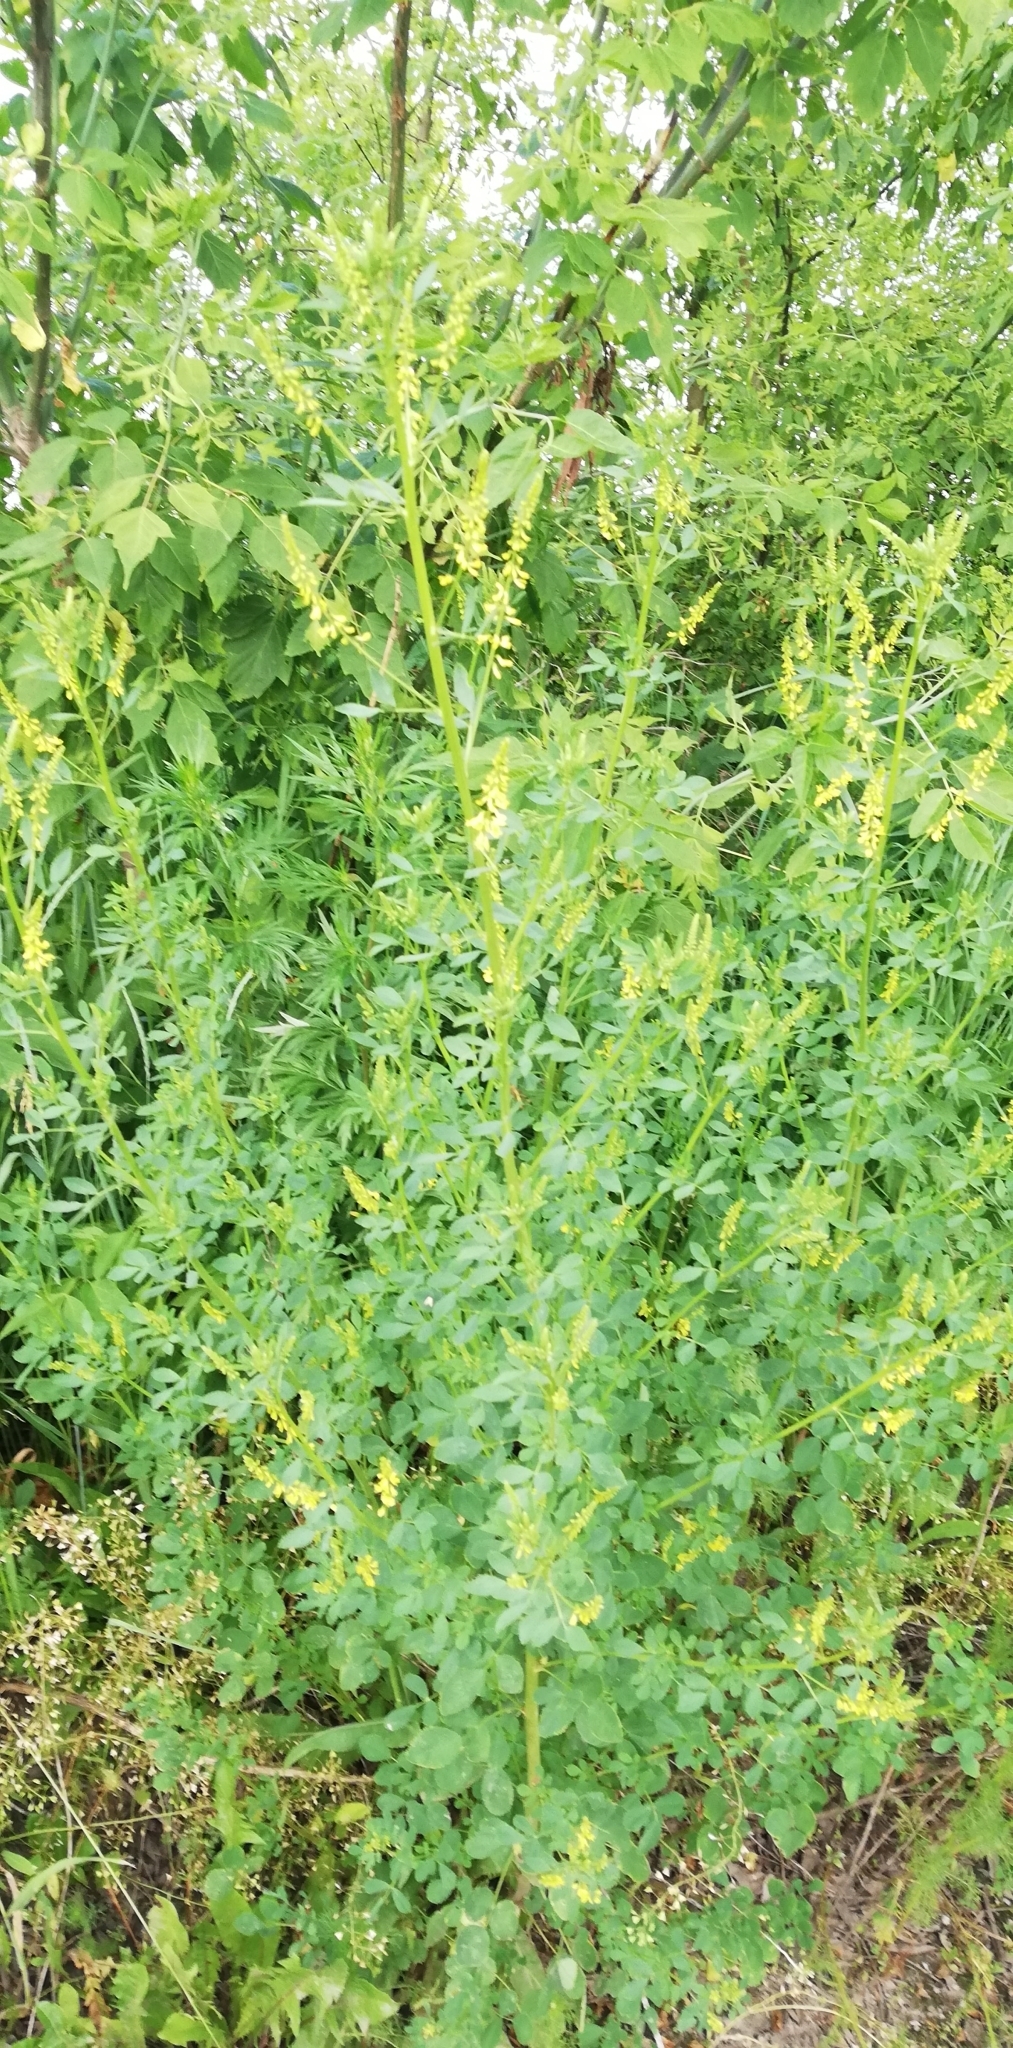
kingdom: Plantae
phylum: Tracheophyta
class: Magnoliopsida
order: Fabales
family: Fabaceae
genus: Melilotus
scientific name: Melilotus officinalis
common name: Sweetclover
